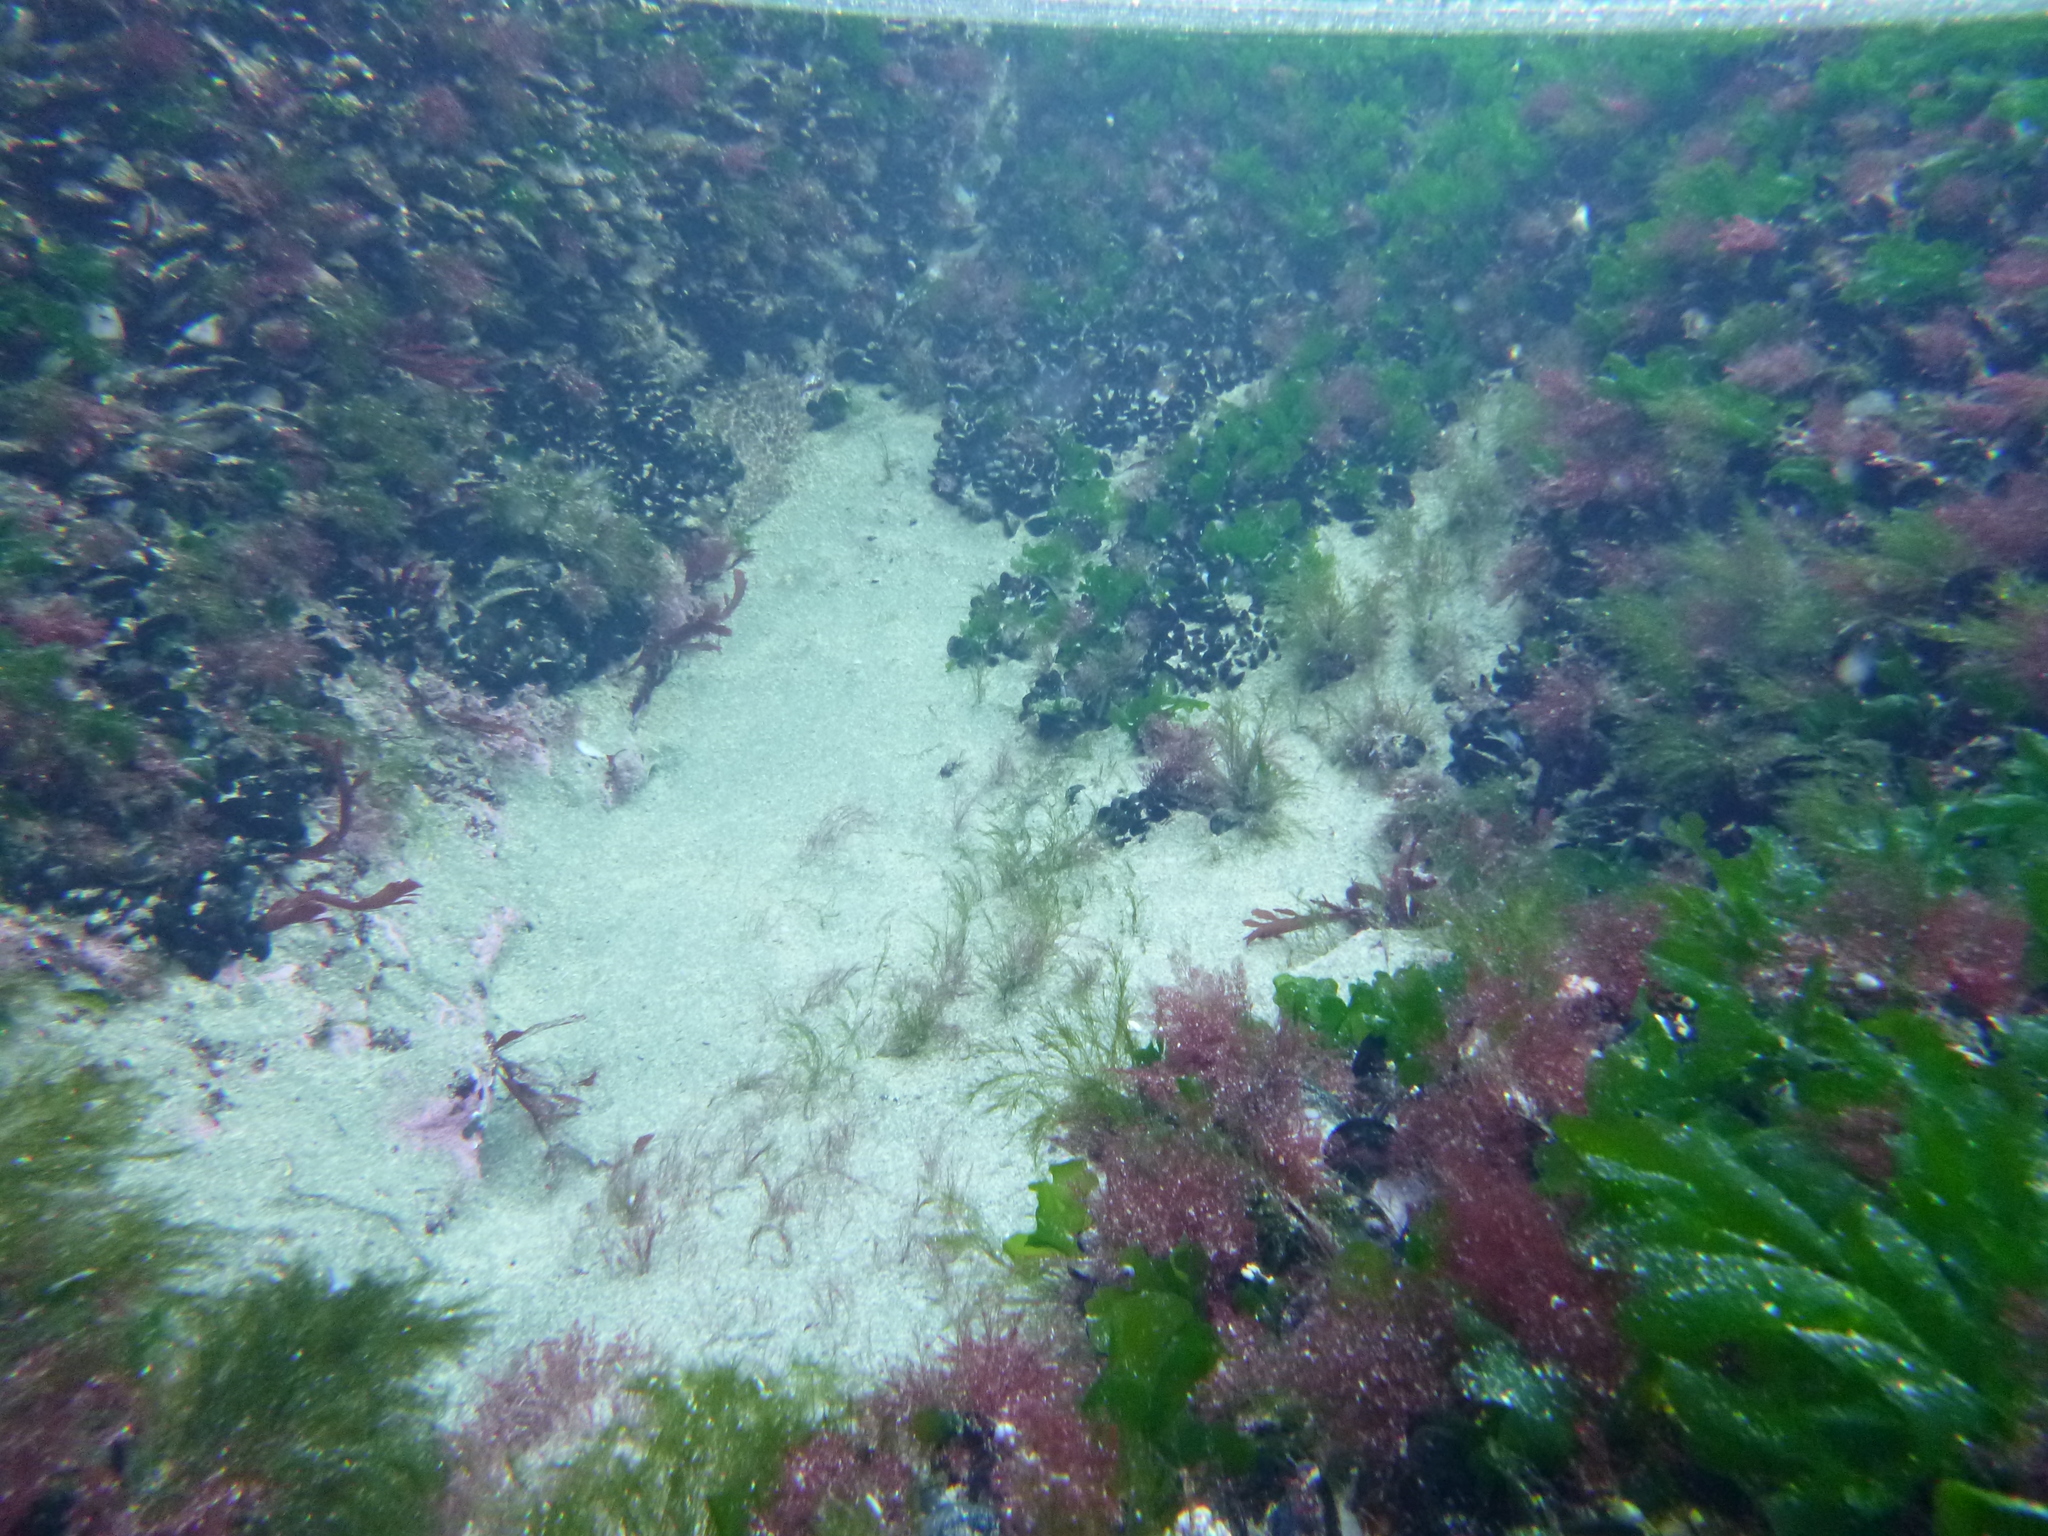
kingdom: Plantae
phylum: Chlorophyta
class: Ulvophyceae
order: Ulvales
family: Ulvaceae
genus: Ulva
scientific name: Ulva
